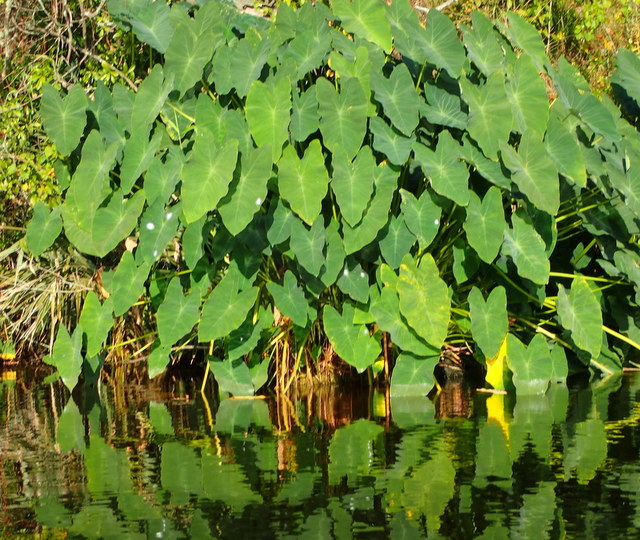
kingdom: Plantae
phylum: Tracheophyta
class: Liliopsida
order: Alismatales
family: Araceae
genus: Colocasia
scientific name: Colocasia esculenta
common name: Taro
